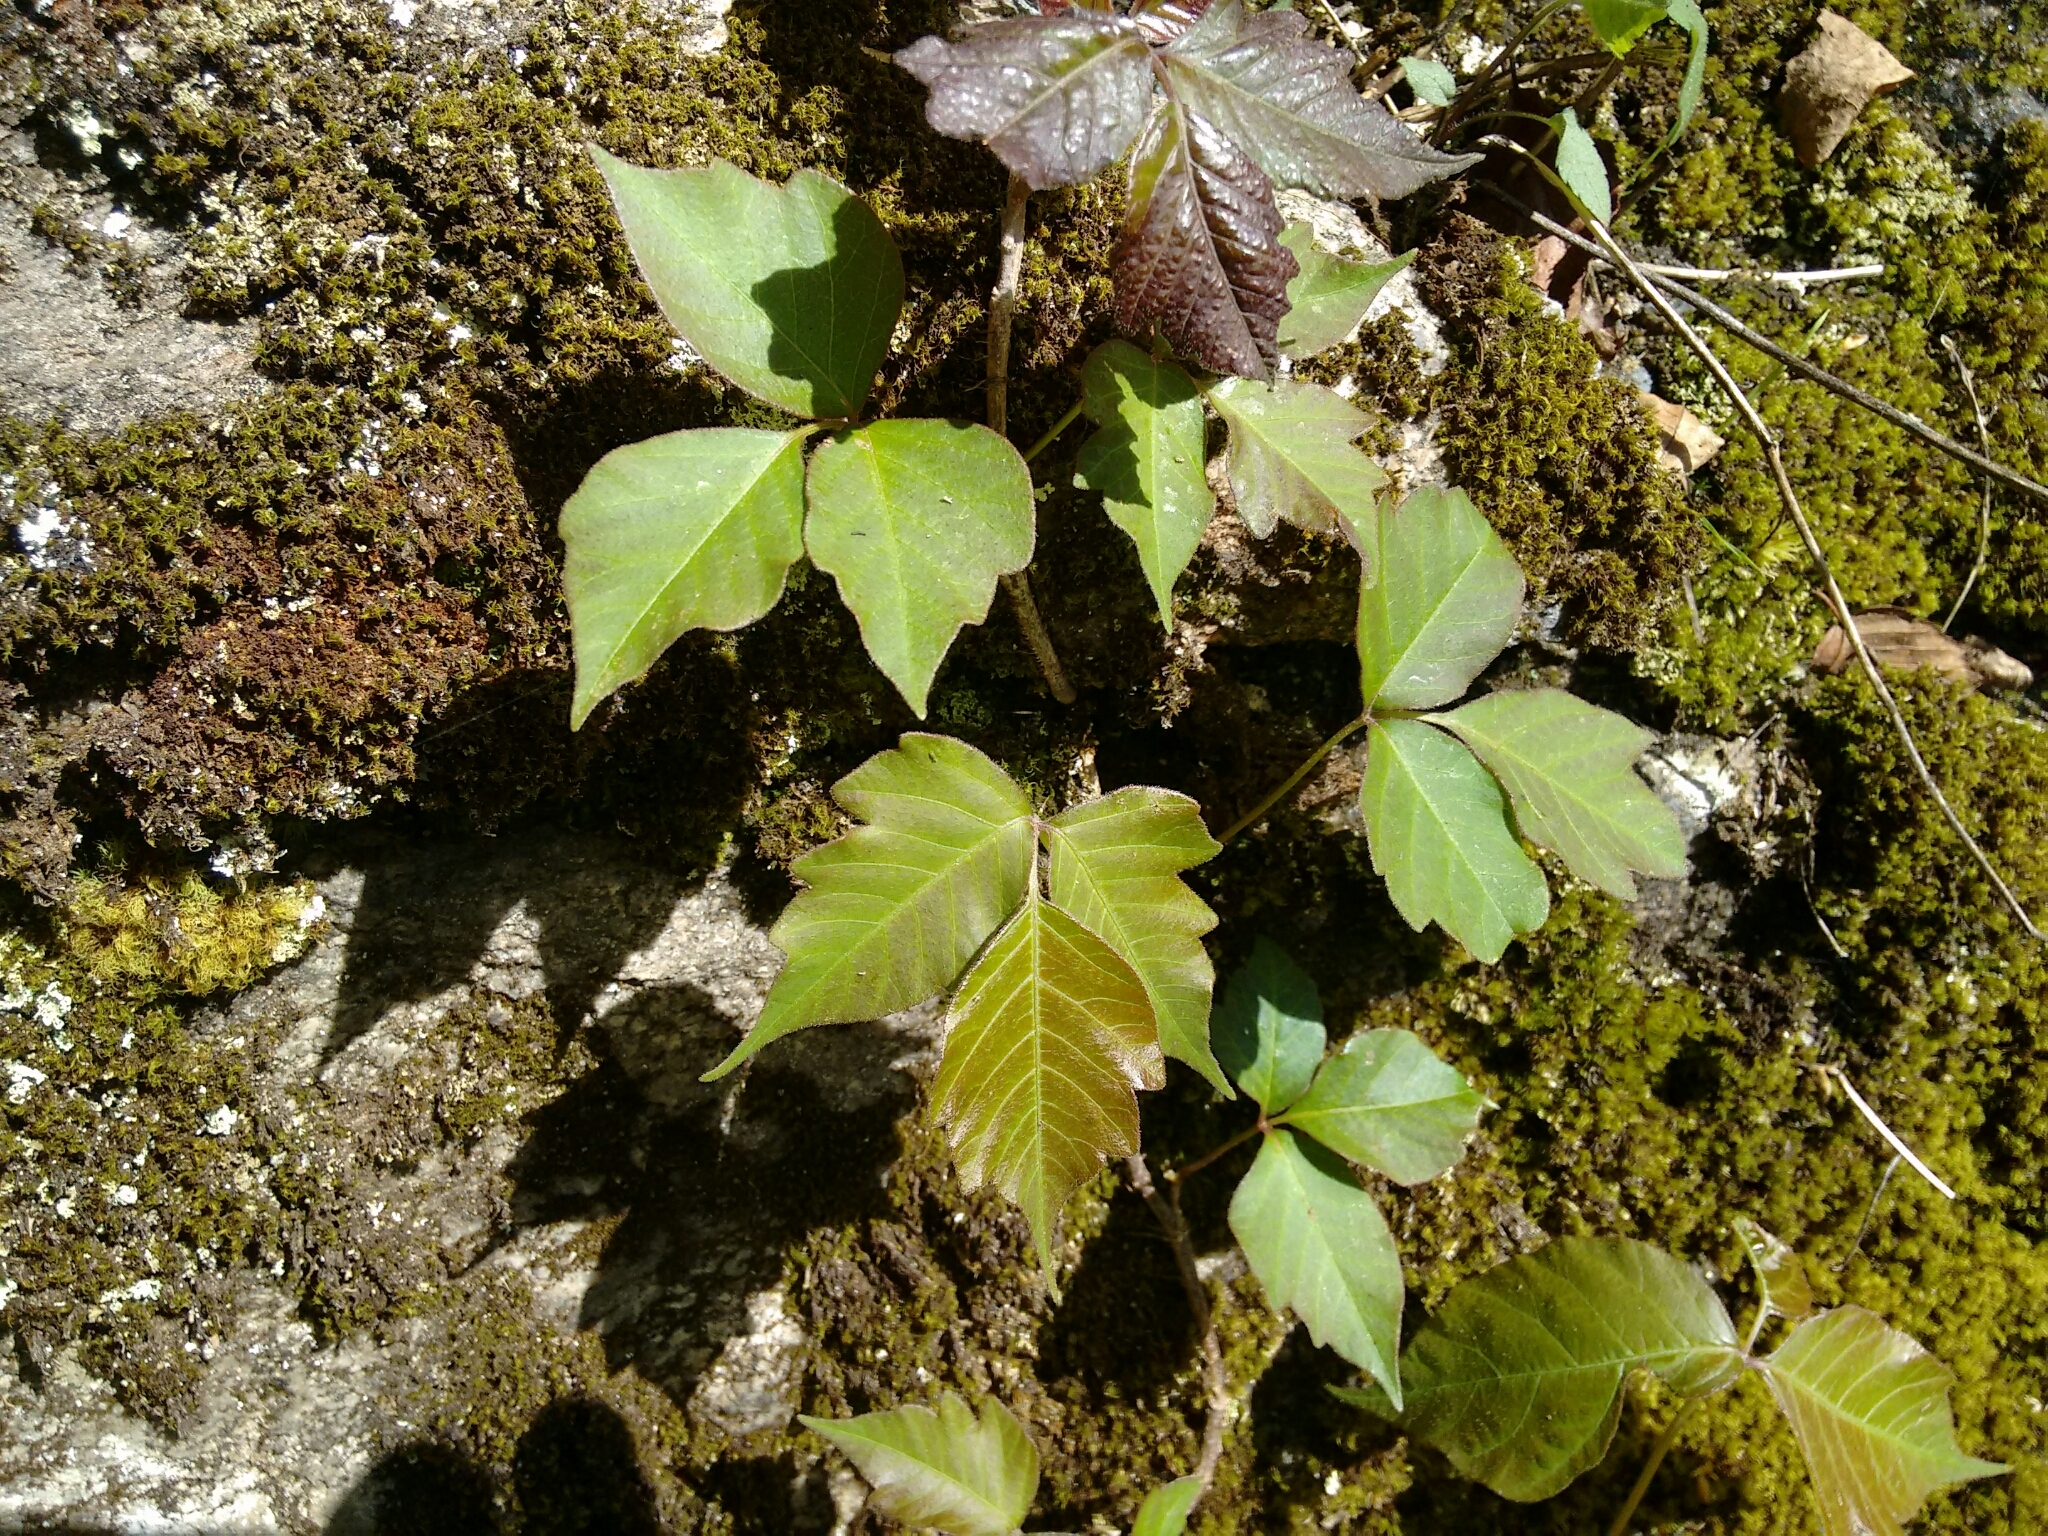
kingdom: Plantae
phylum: Tracheophyta
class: Magnoliopsida
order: Sapindales
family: Anacardiaceae
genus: Toxicodendron
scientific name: Toxicodendron radicans
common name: Poison ivy
